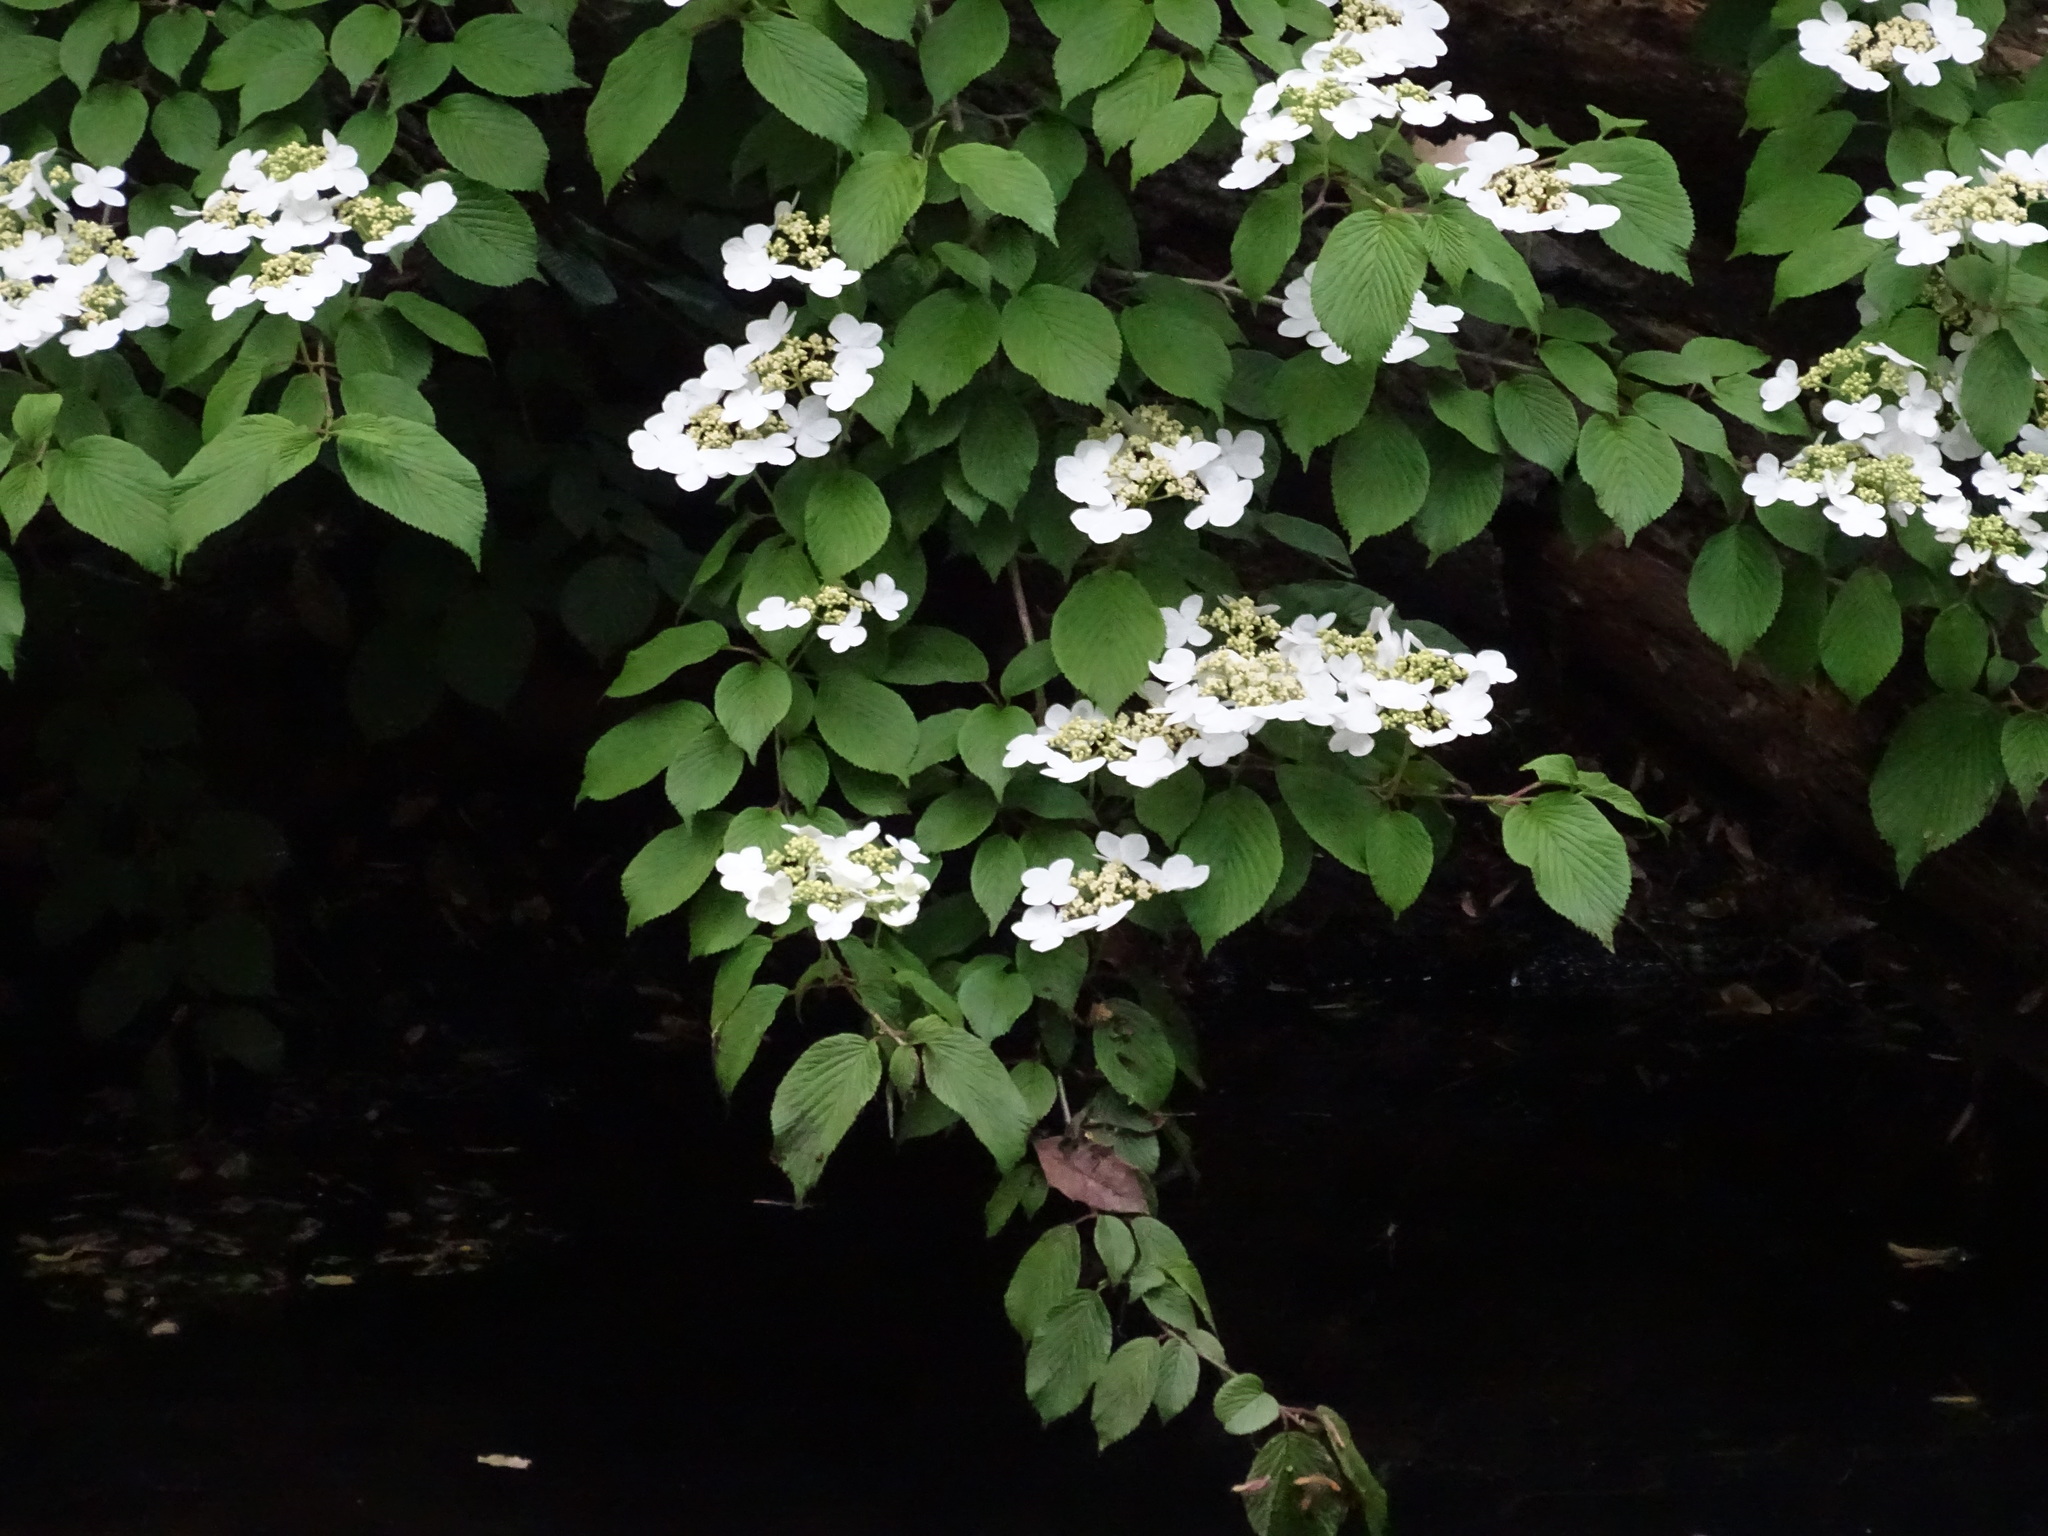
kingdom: Plantae
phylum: Tracheophyta
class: Magnoliopsida
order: Dipsacales
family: Viburnaceae
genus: Viburnum
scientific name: Viburnum plicatum
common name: Japanese snowball
